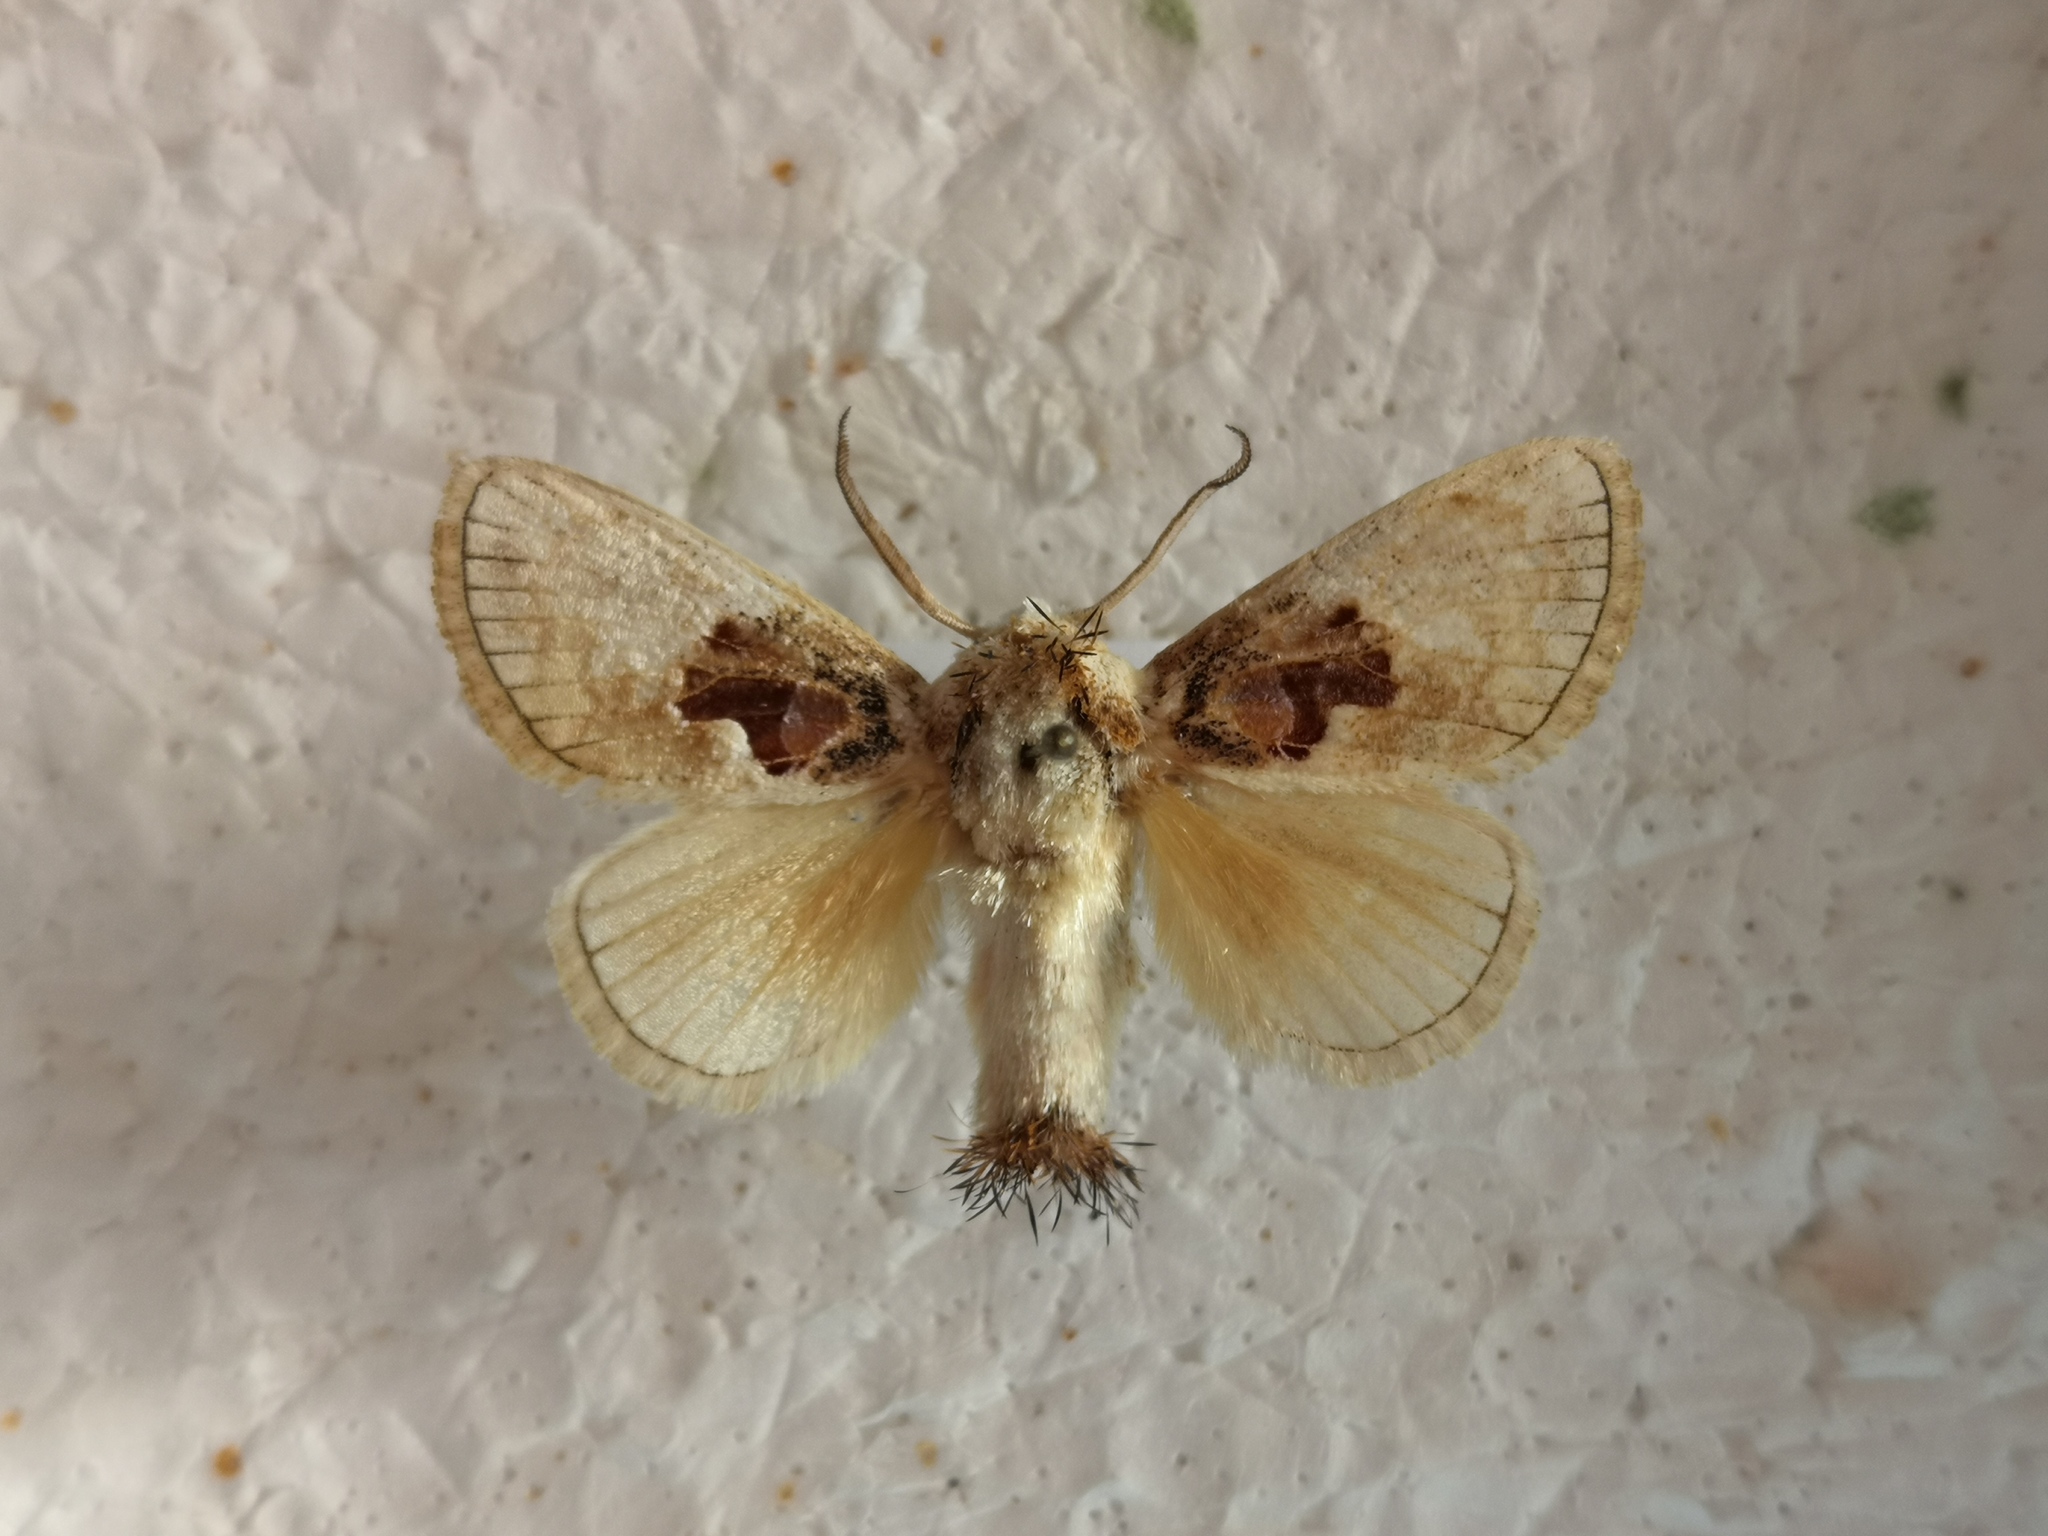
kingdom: Animalia
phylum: Arthropoda
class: Insecta
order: Lepidoptera
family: Limacodidae
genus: Chalcoscelides
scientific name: Chalcoscelides castaneipars
